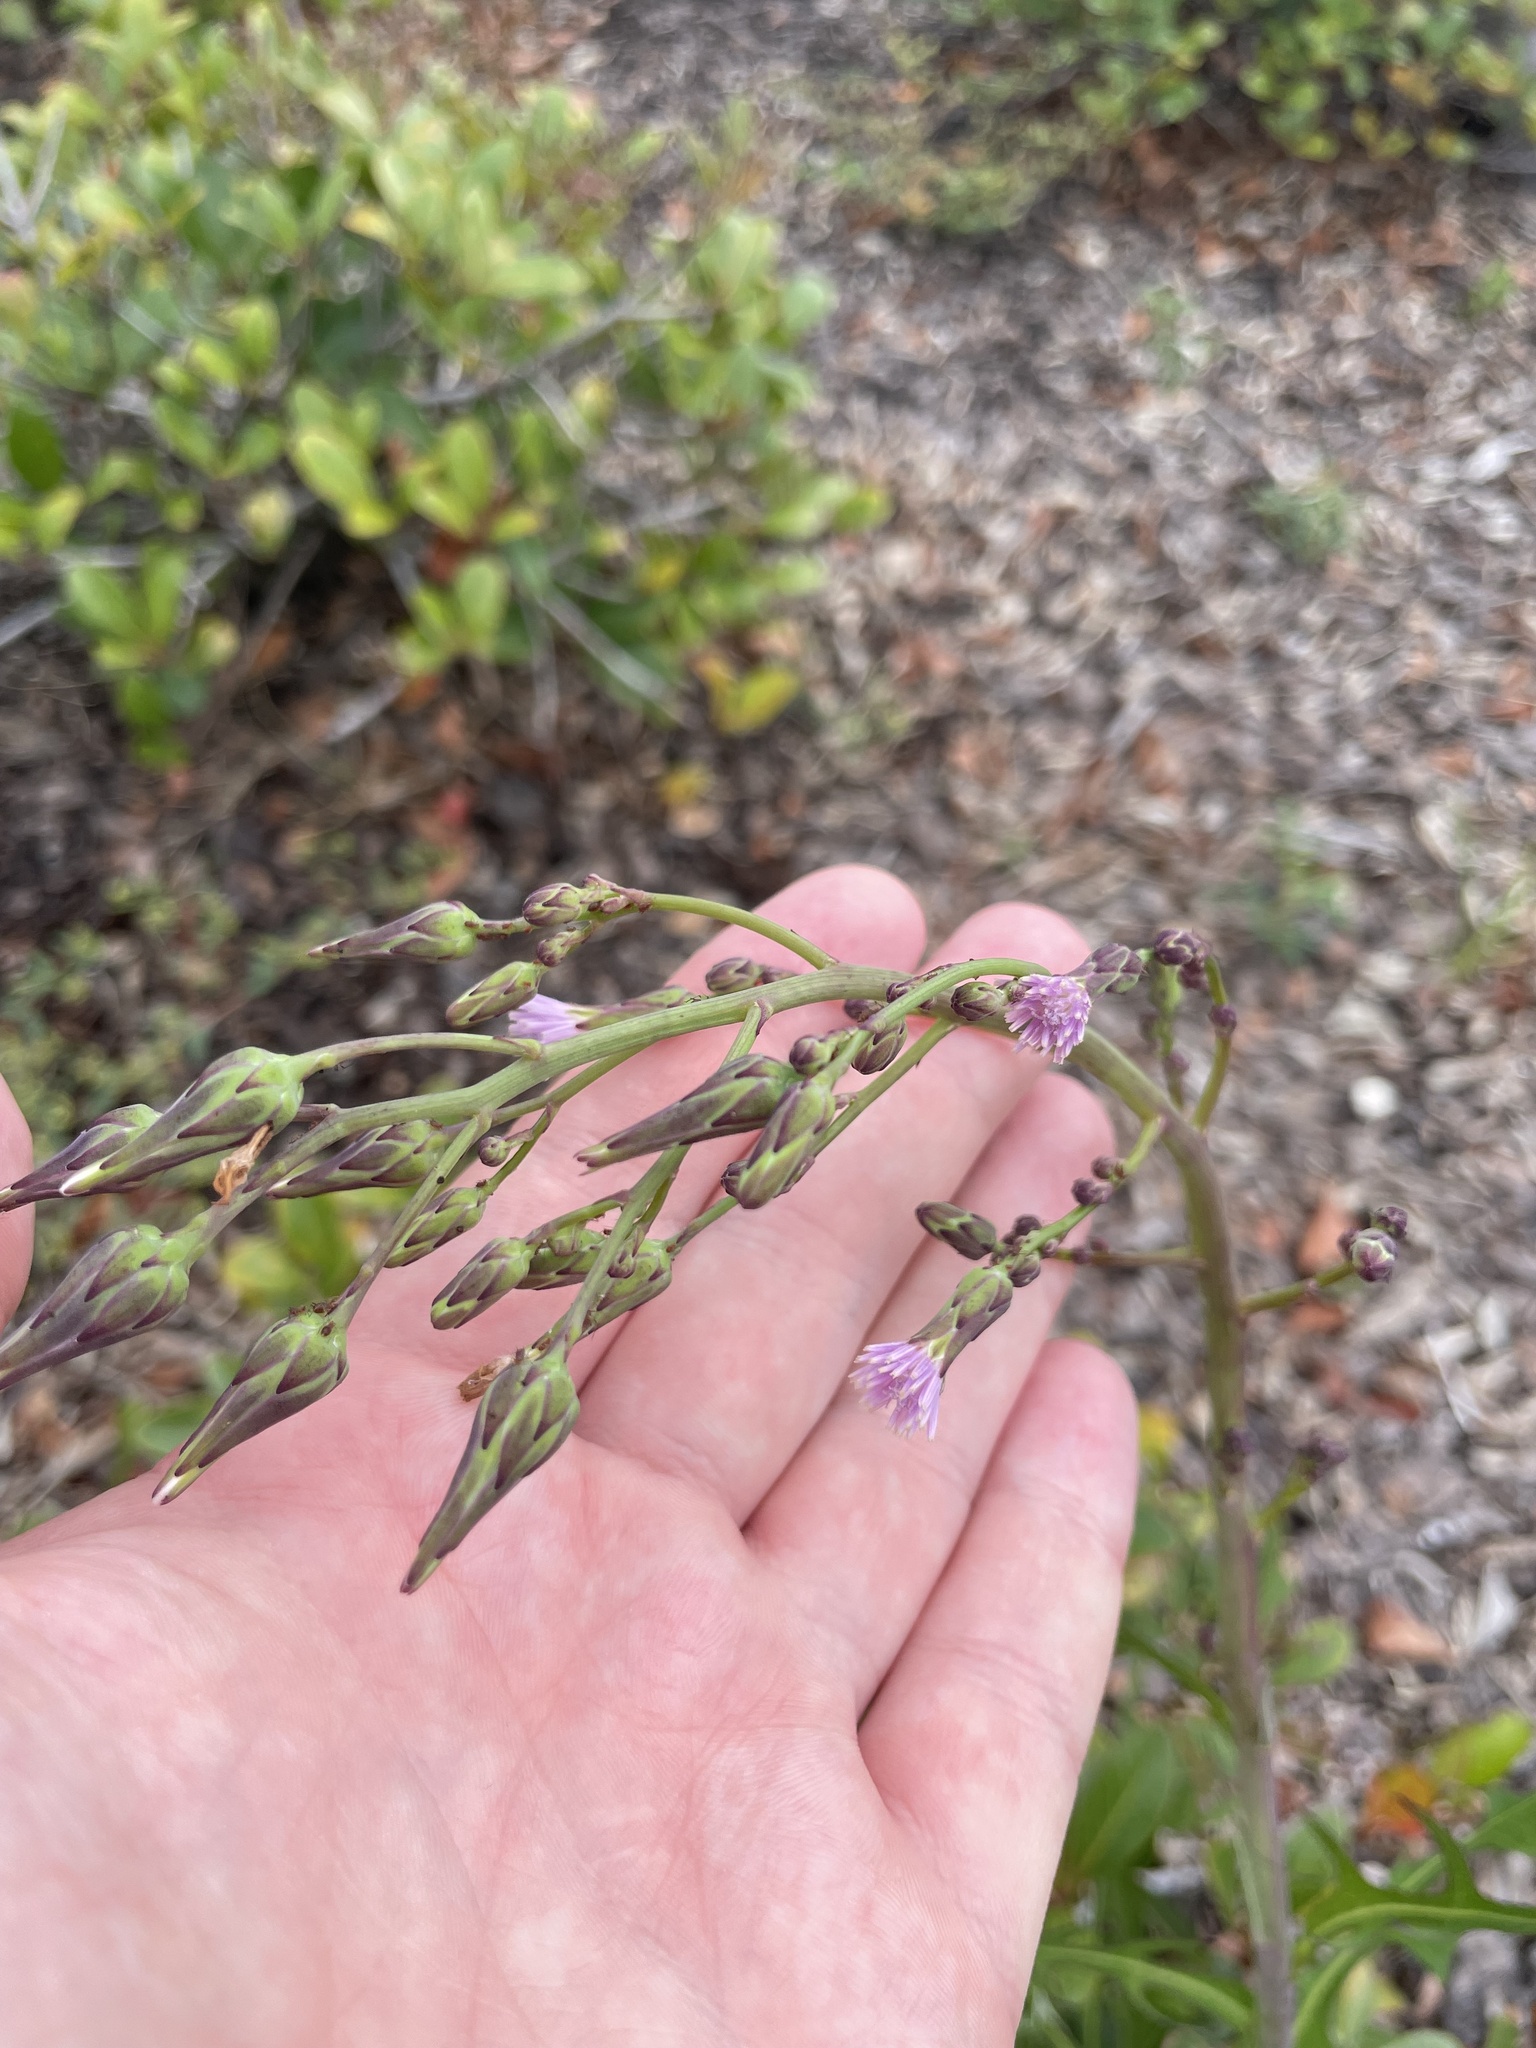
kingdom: Plantae
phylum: Tracheophyta
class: Magnoliopsida
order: Asterales
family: Asteraceae
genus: Lactuca
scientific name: Lactuca graminifolia
